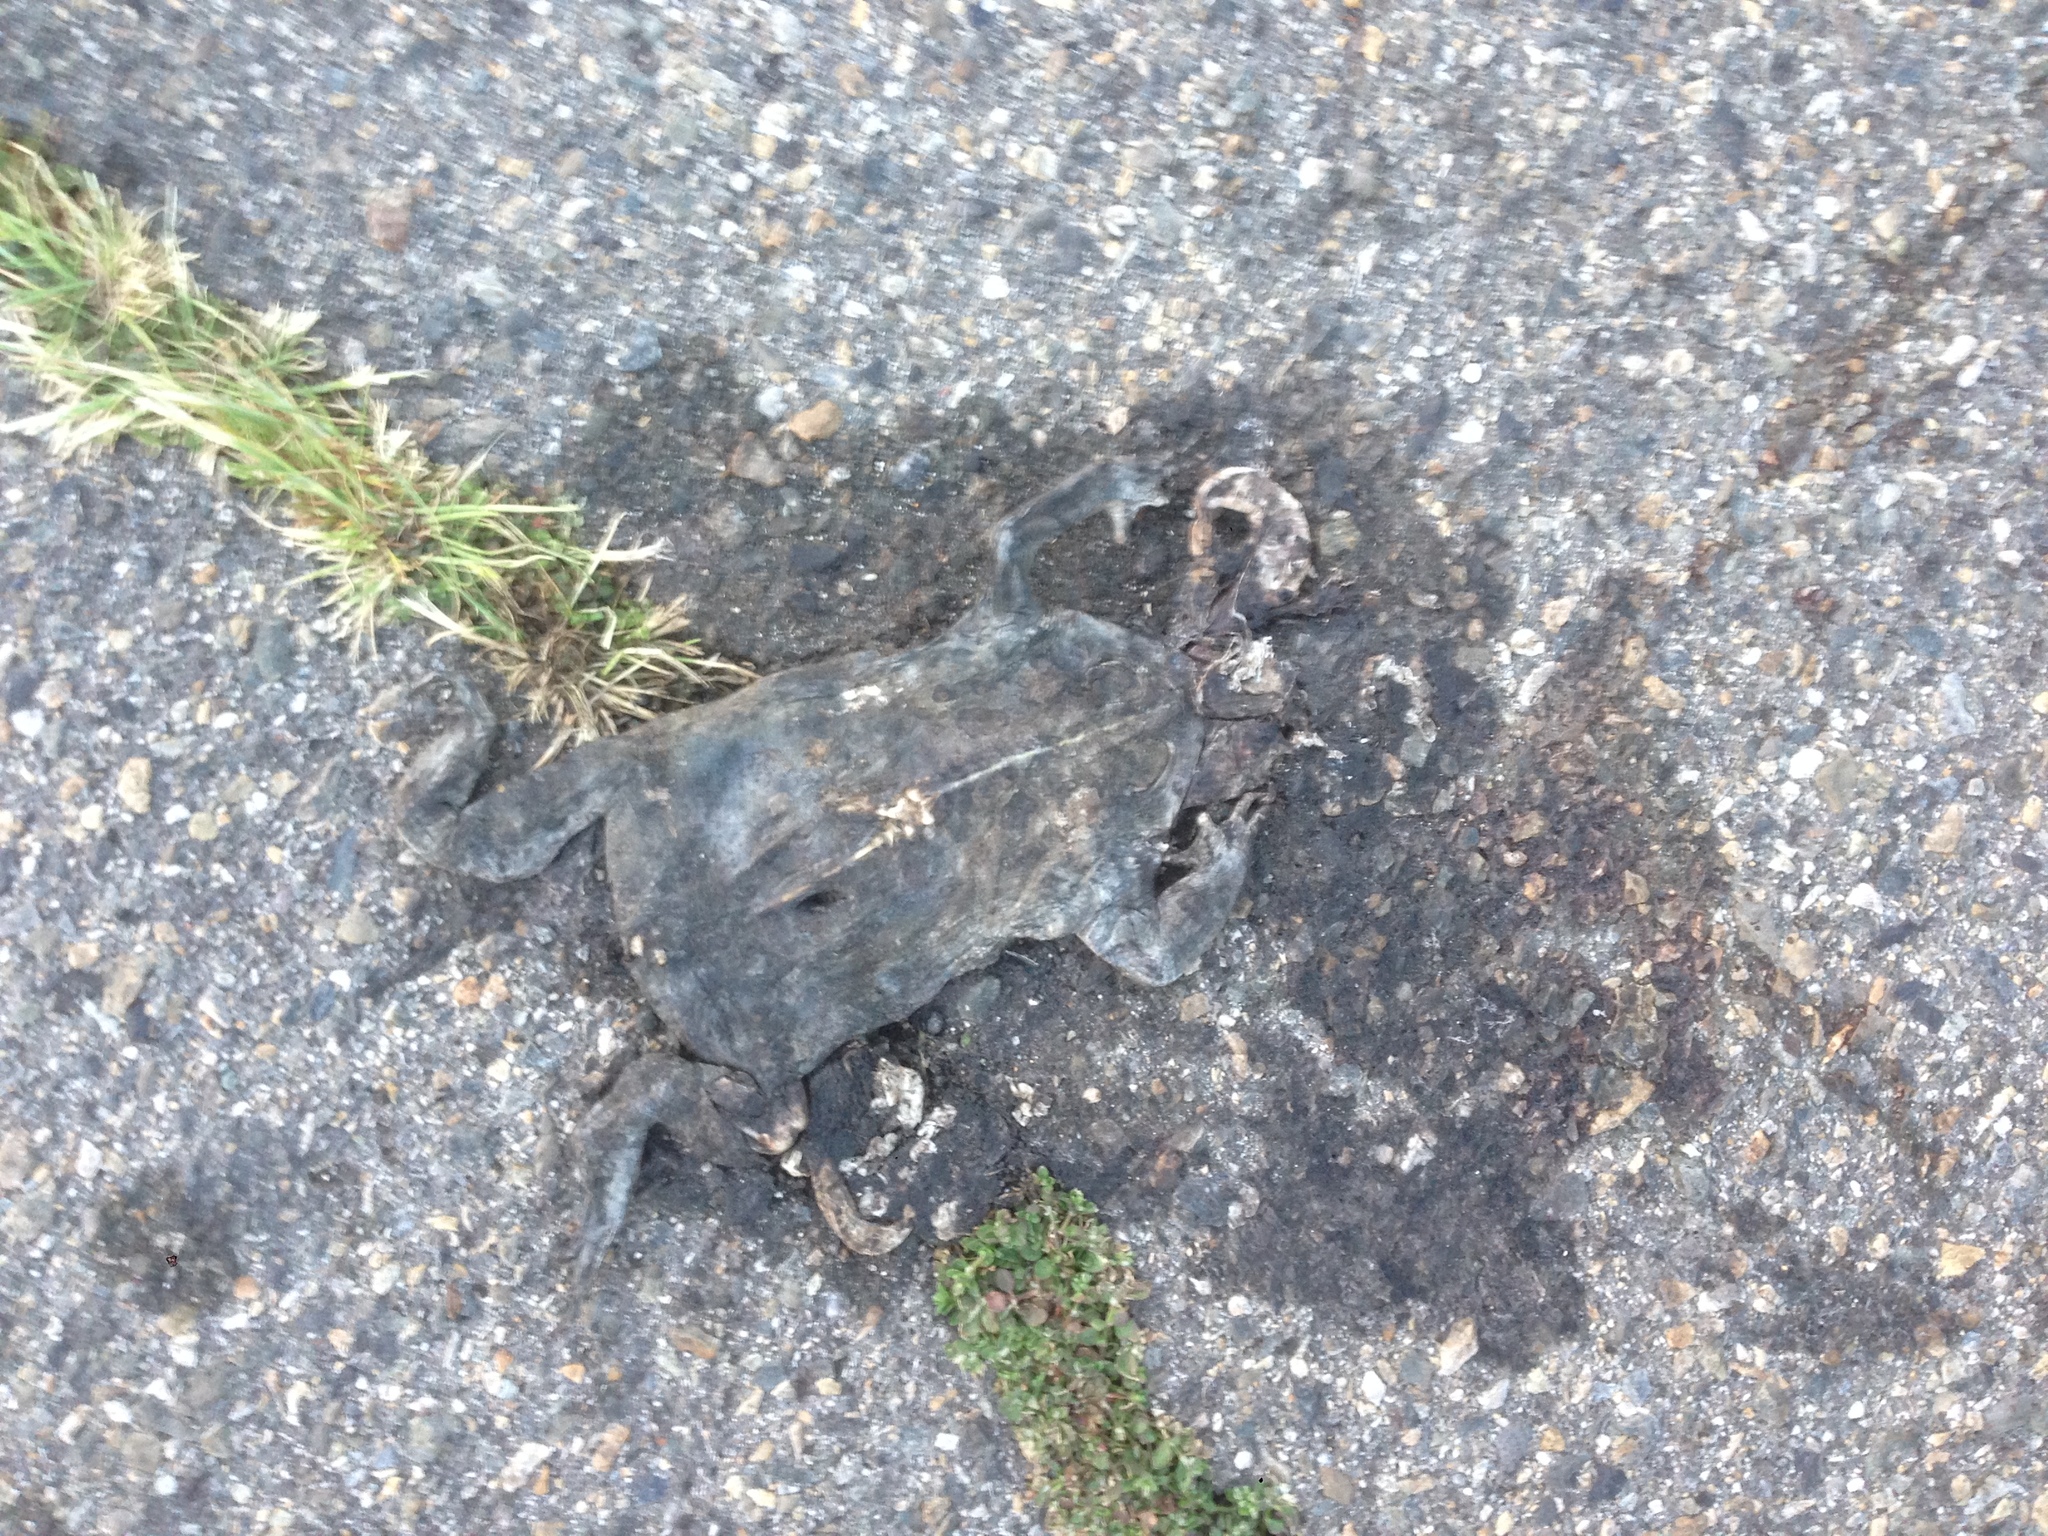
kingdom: Animalia
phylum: Chordata
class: Amphibia
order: Anura
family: Bufonidae
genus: Anaxyrus
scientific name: Anaxyrus boreas
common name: Western toad
